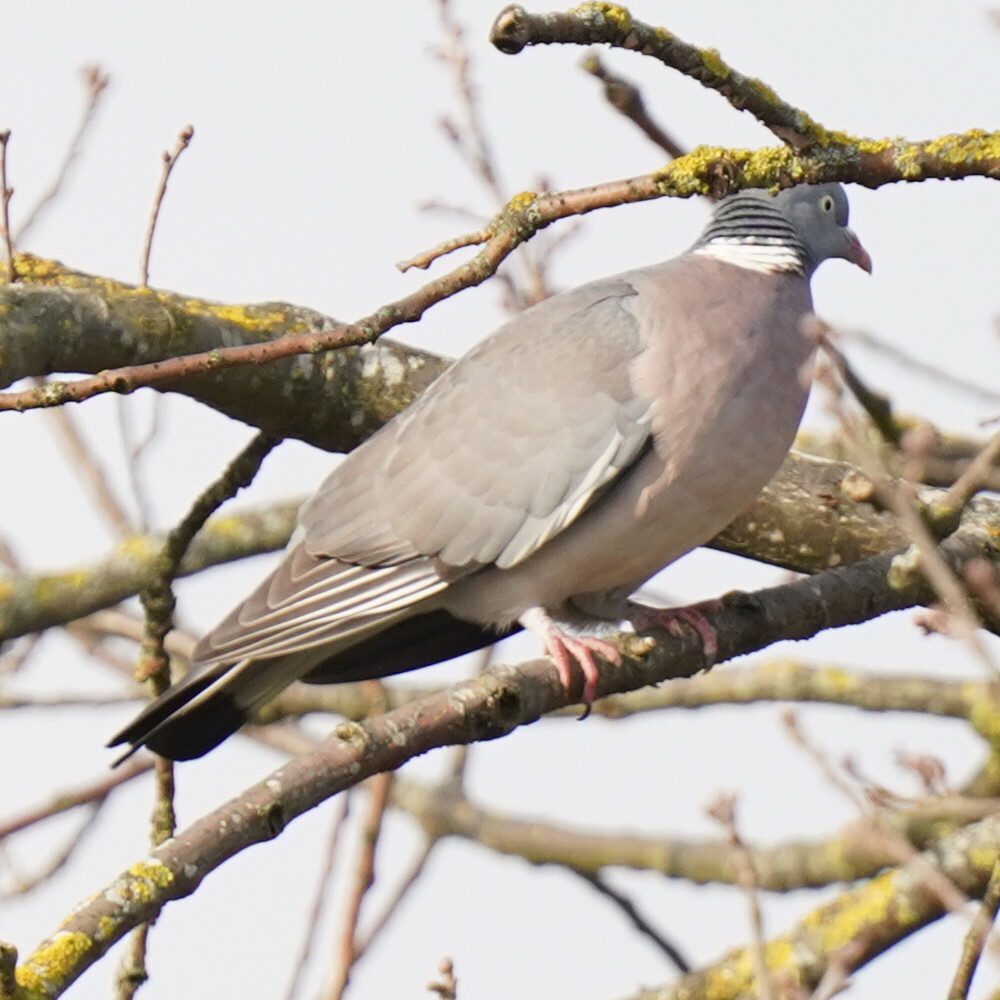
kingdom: Animalia
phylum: Chordata
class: Aves
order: Columbiformes
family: Columbidae
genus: Columba
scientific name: Columba palumbus
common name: Common wood pigeon
